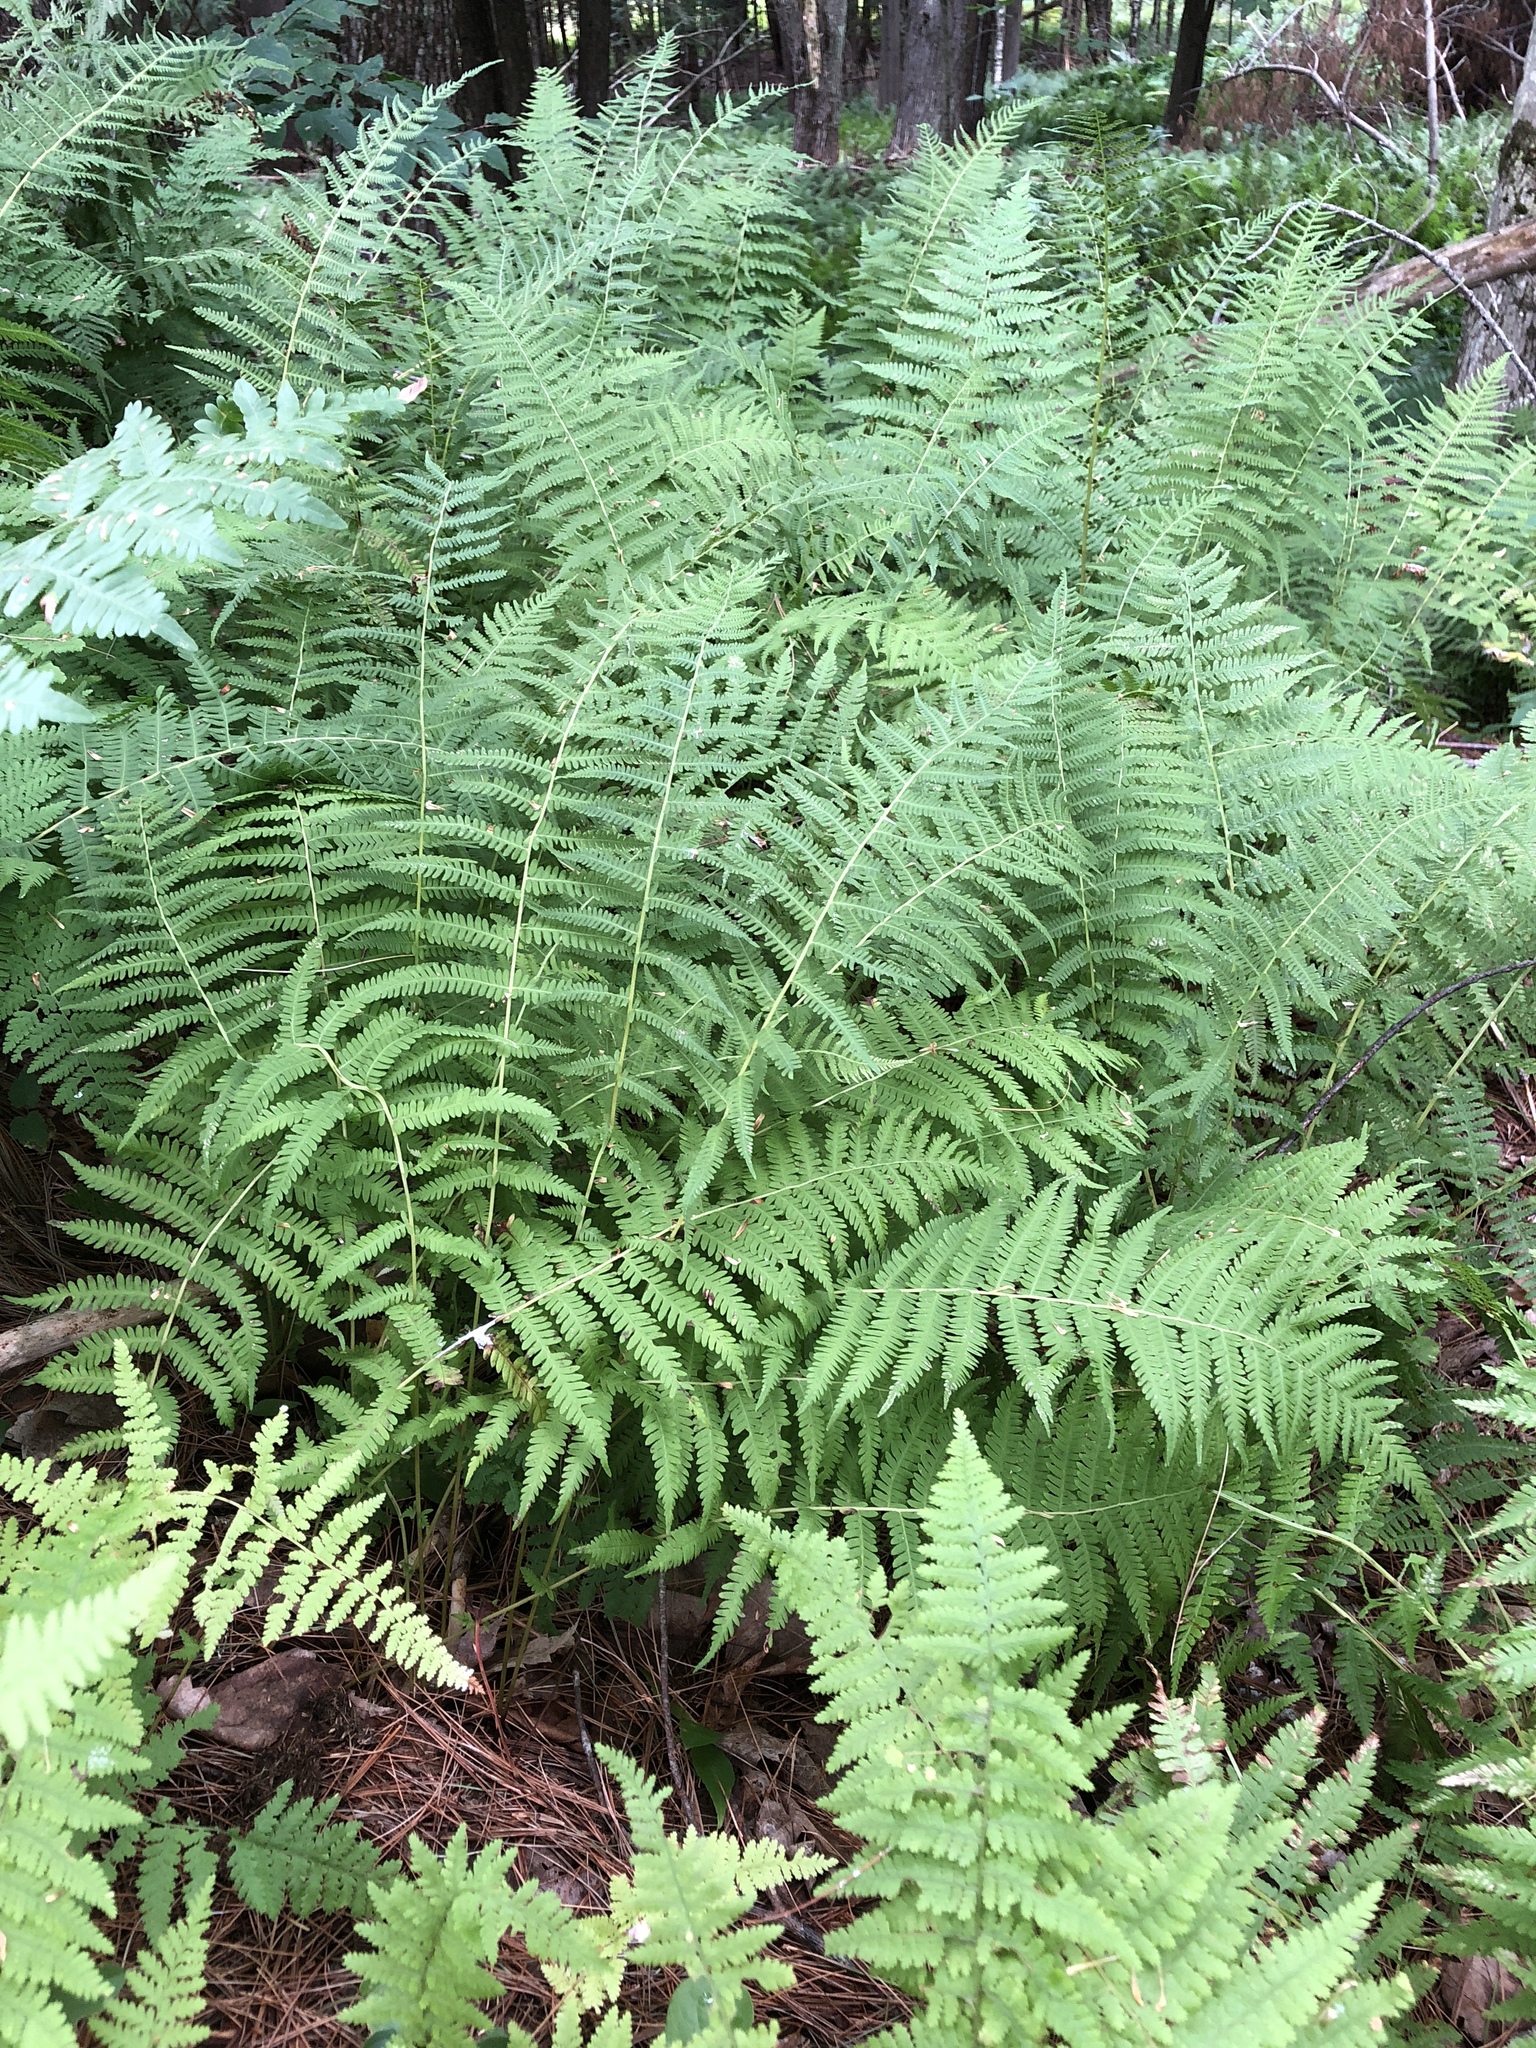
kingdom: Plantae
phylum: Tracheophyta
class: Polypodiopsida
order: Polypodiales
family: Dennstaedtiaceae
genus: Sitobolium
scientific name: Sitobolium punctilobum
